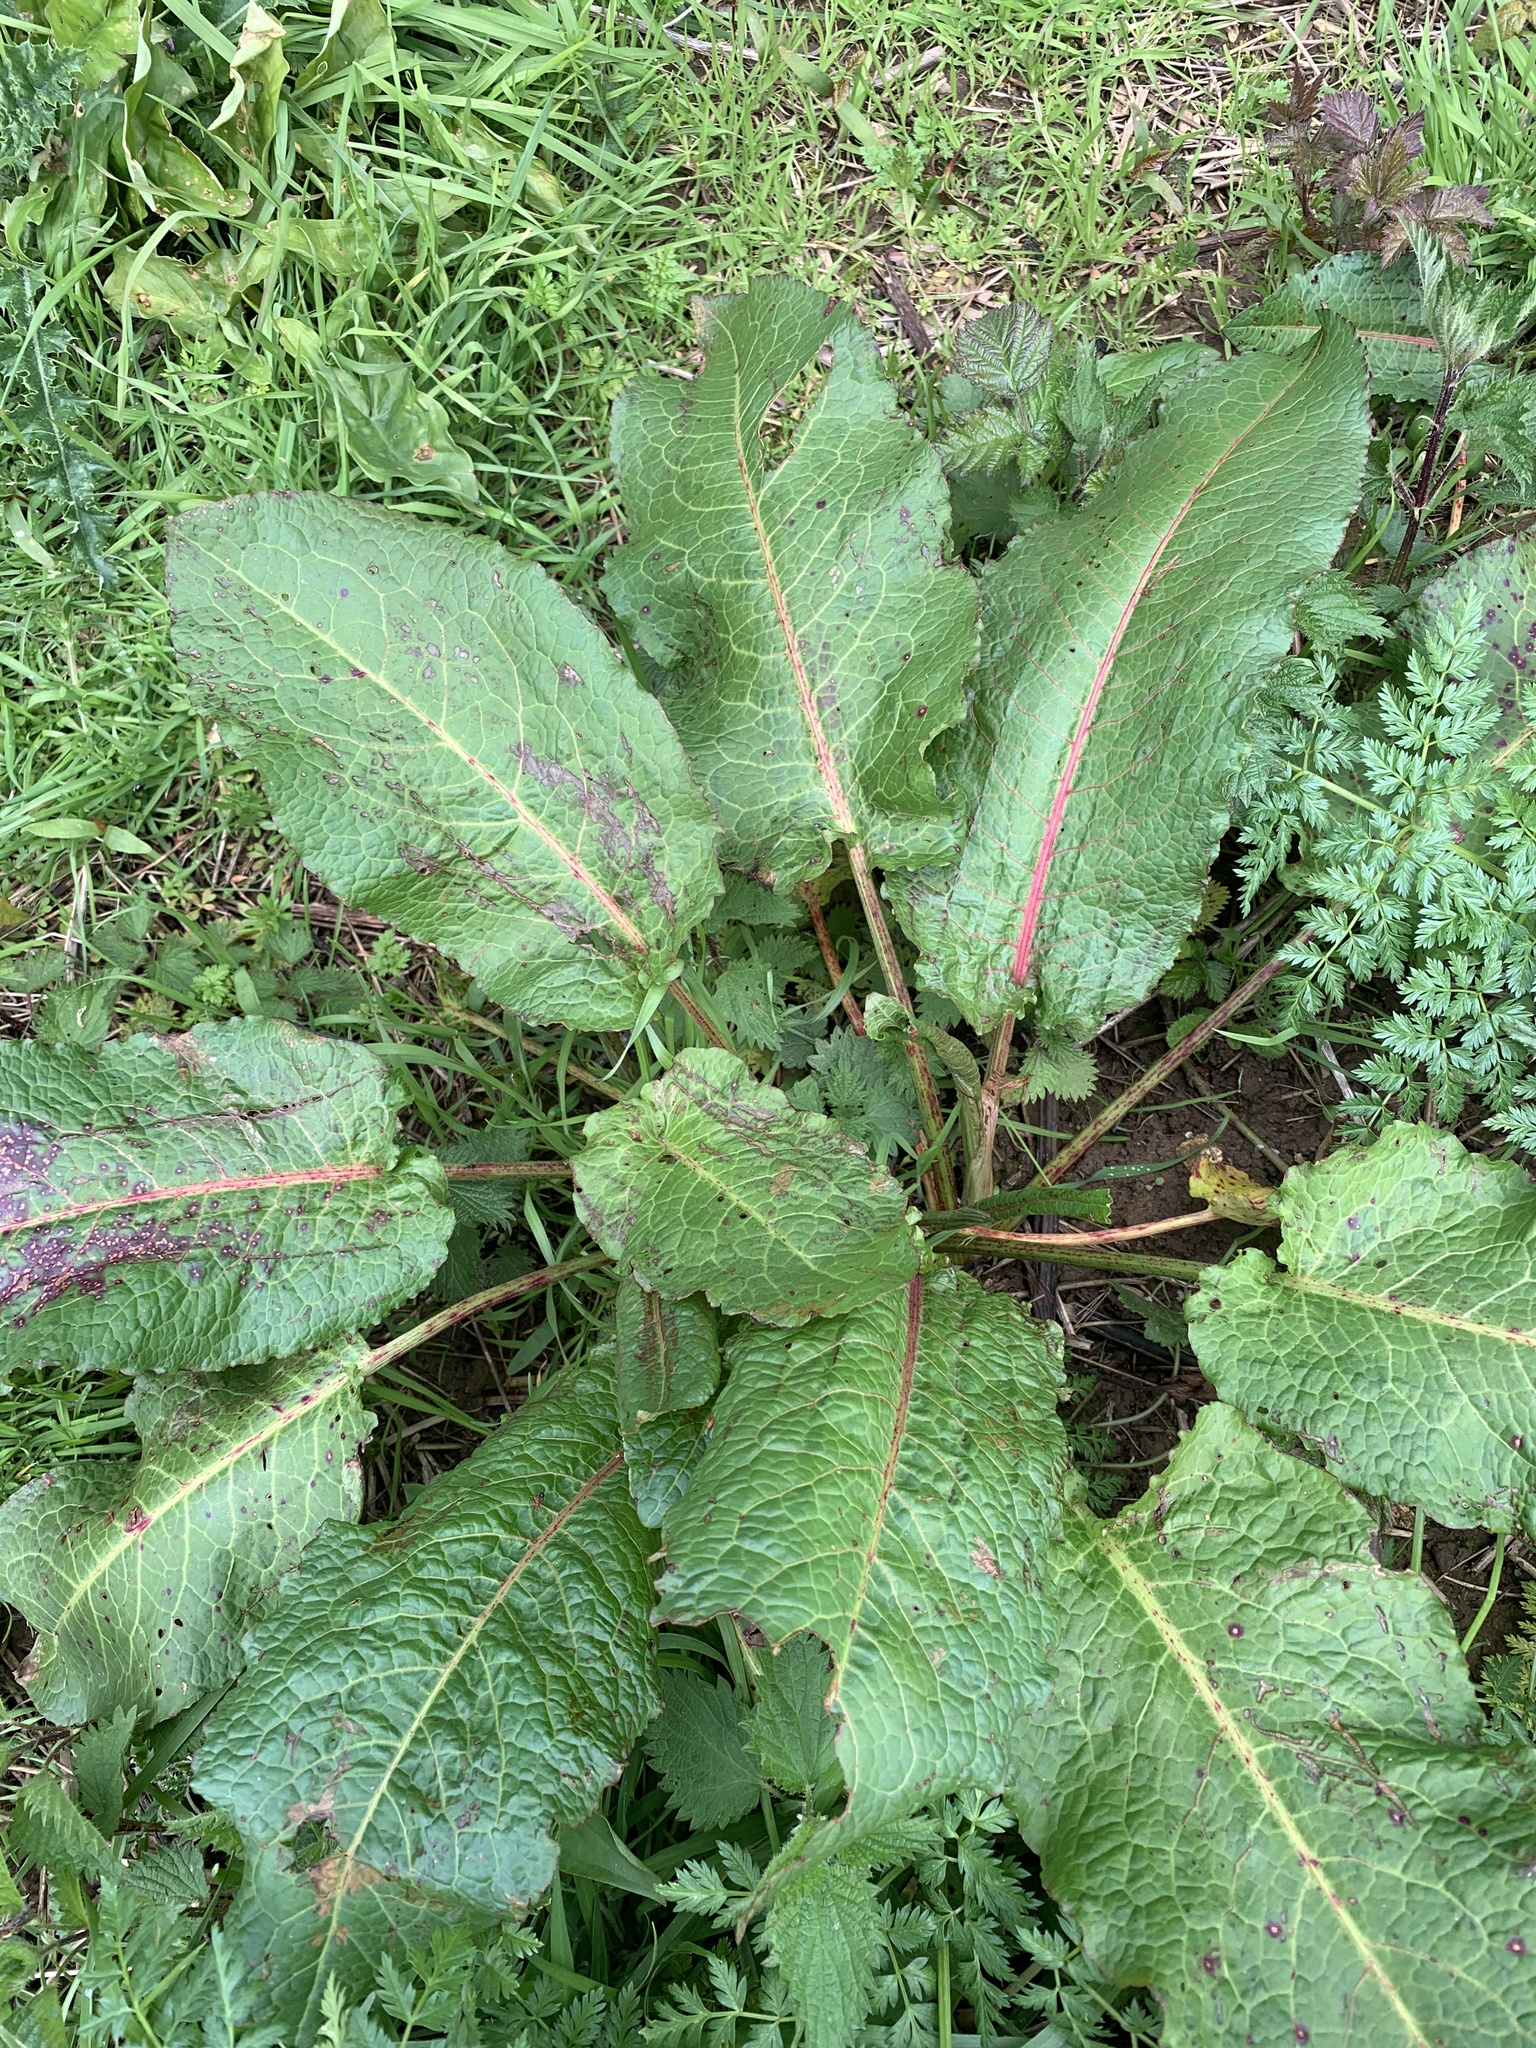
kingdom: Plantae
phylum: Tracheophyta
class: Magnoliopsida
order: Caryophyllales
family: Polygonaceae
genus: Rumex
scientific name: Rumex obtusifolius
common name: Bitter dock
